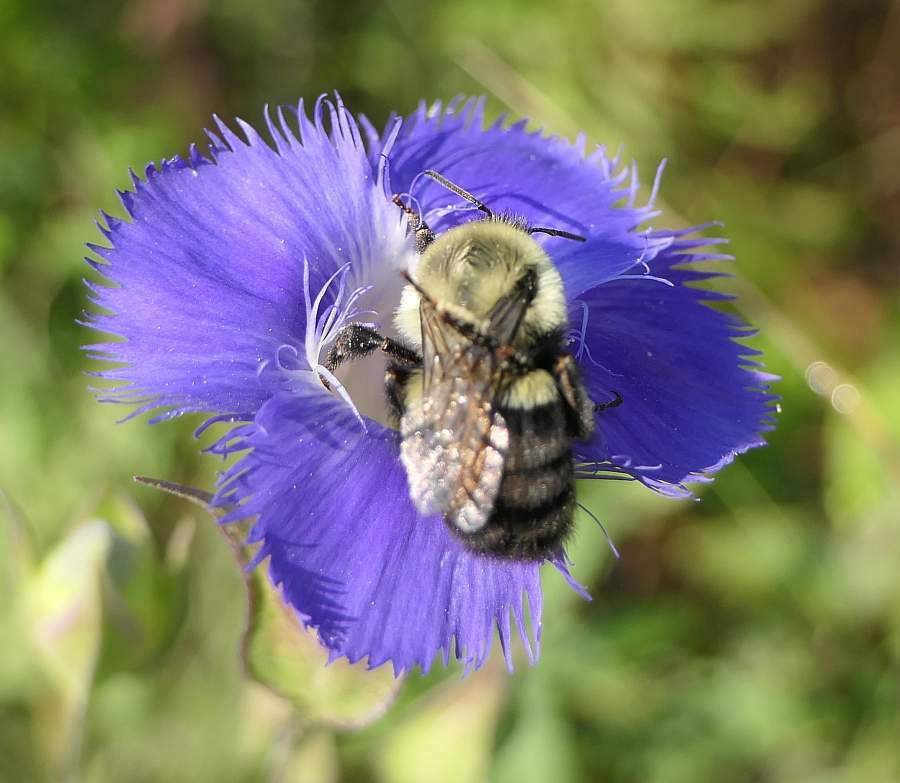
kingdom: Animalia
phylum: Arthropoda
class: Insecta
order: Hymenoptera
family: Apidae
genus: Bombus
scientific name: Bombus impatiens
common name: Common eastern bumble bee
